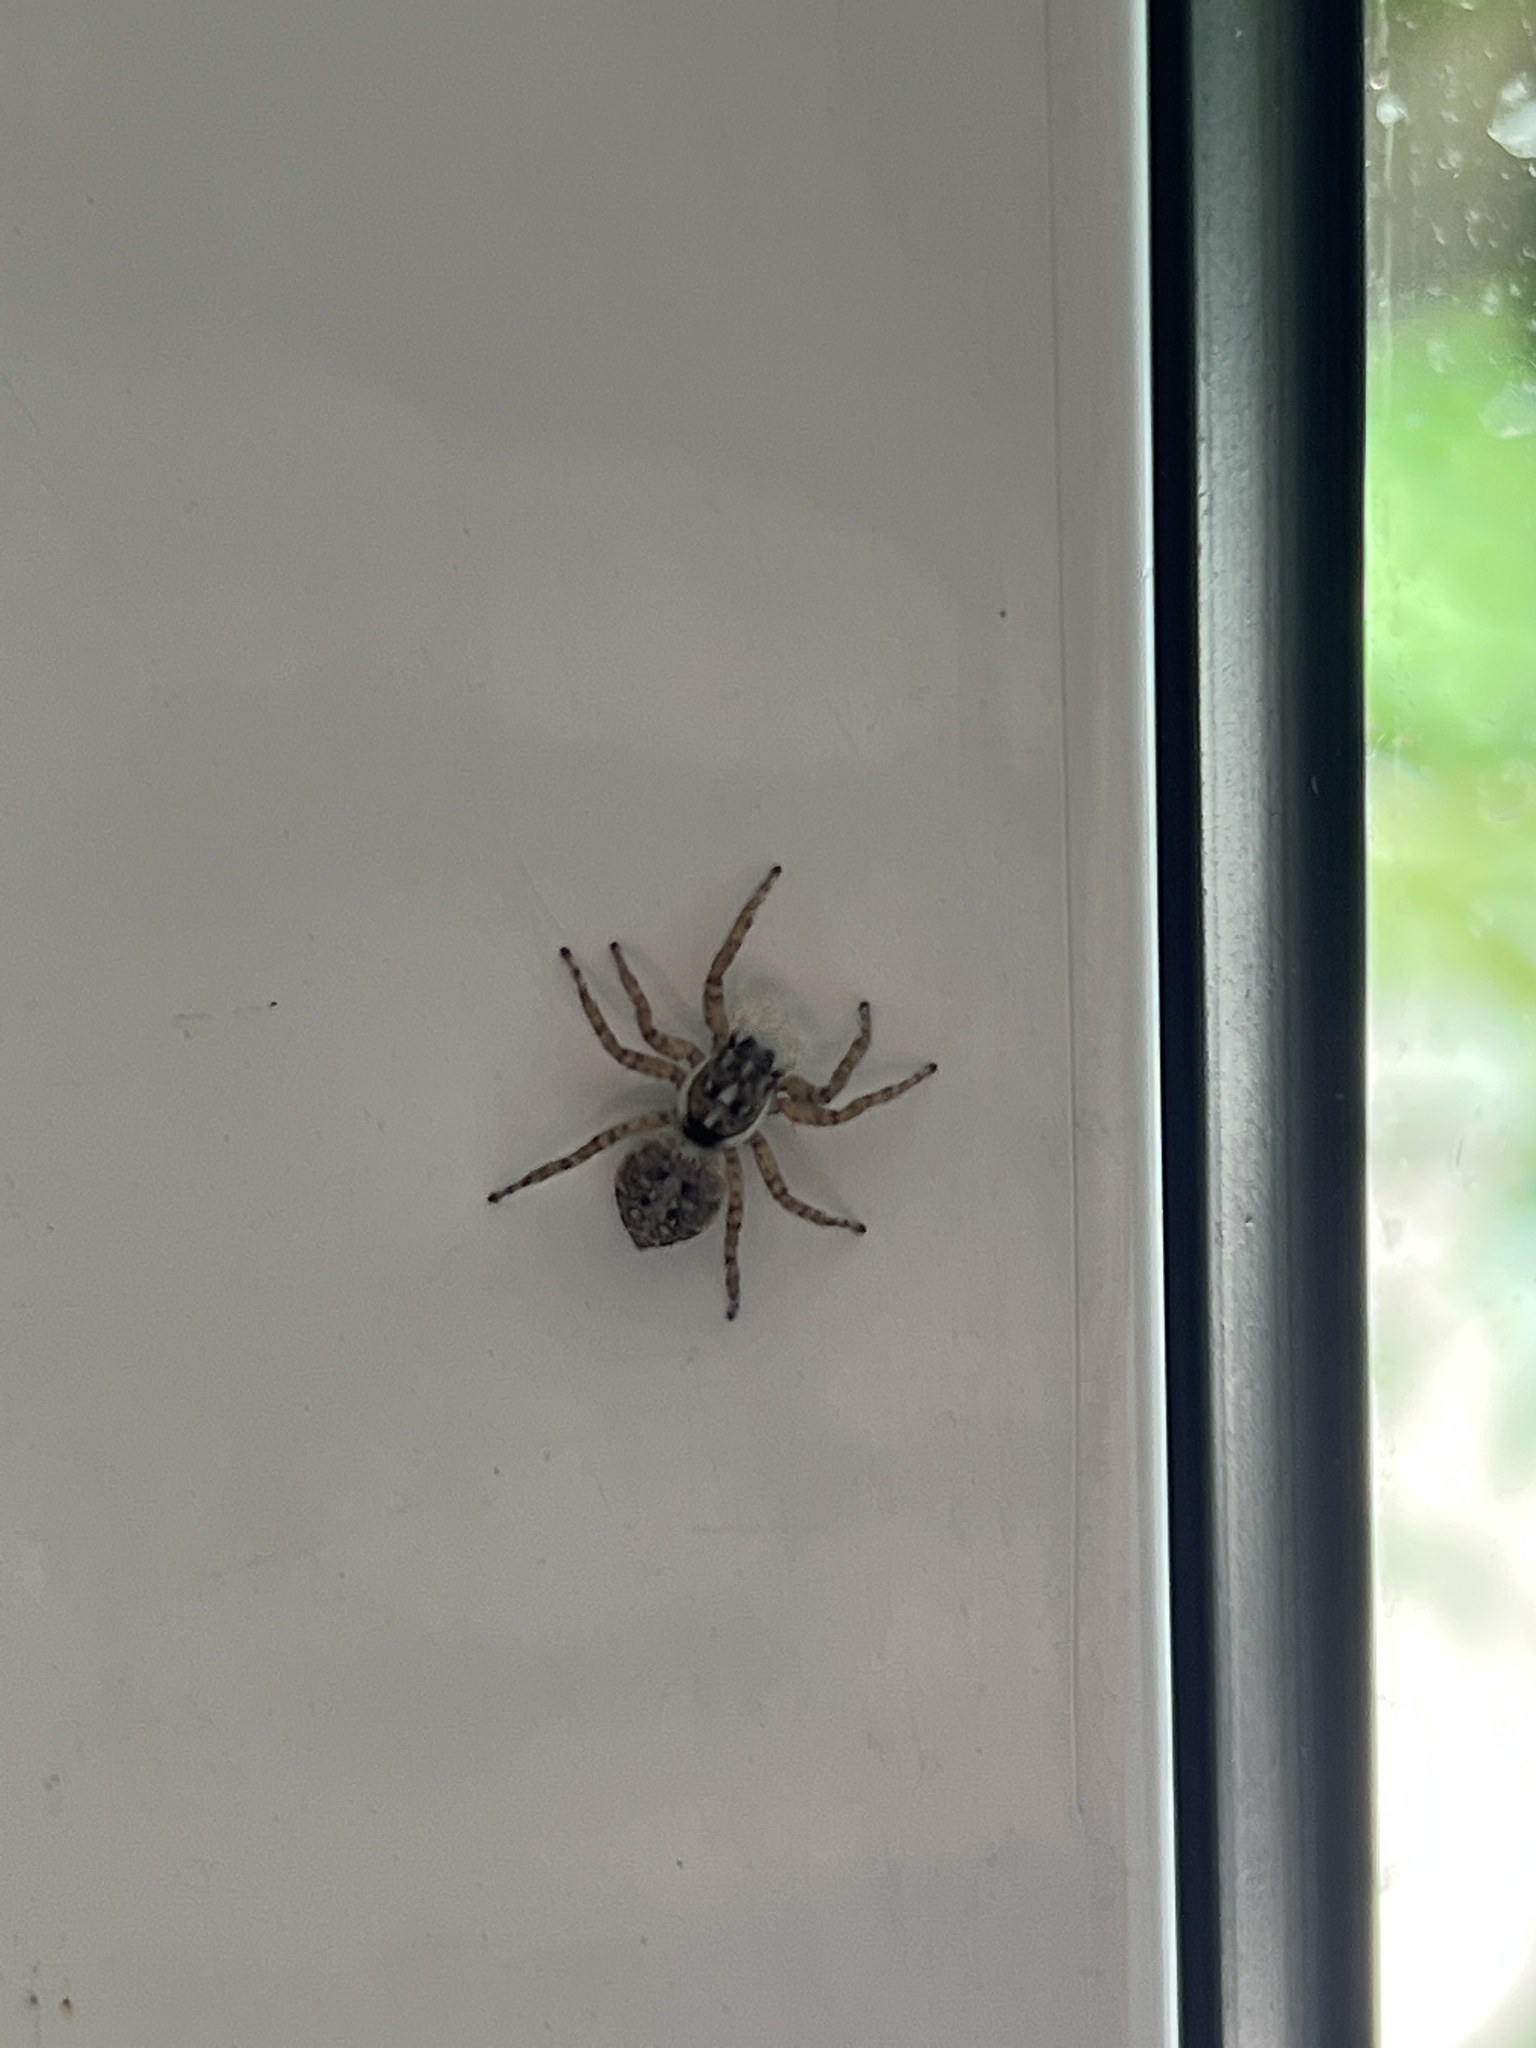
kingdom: Animalia
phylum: Arthropoda
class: Arachnida
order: Araneae
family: Salticidae
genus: Menemerus
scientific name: Menemerus semilimbatus
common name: Jumping spider
